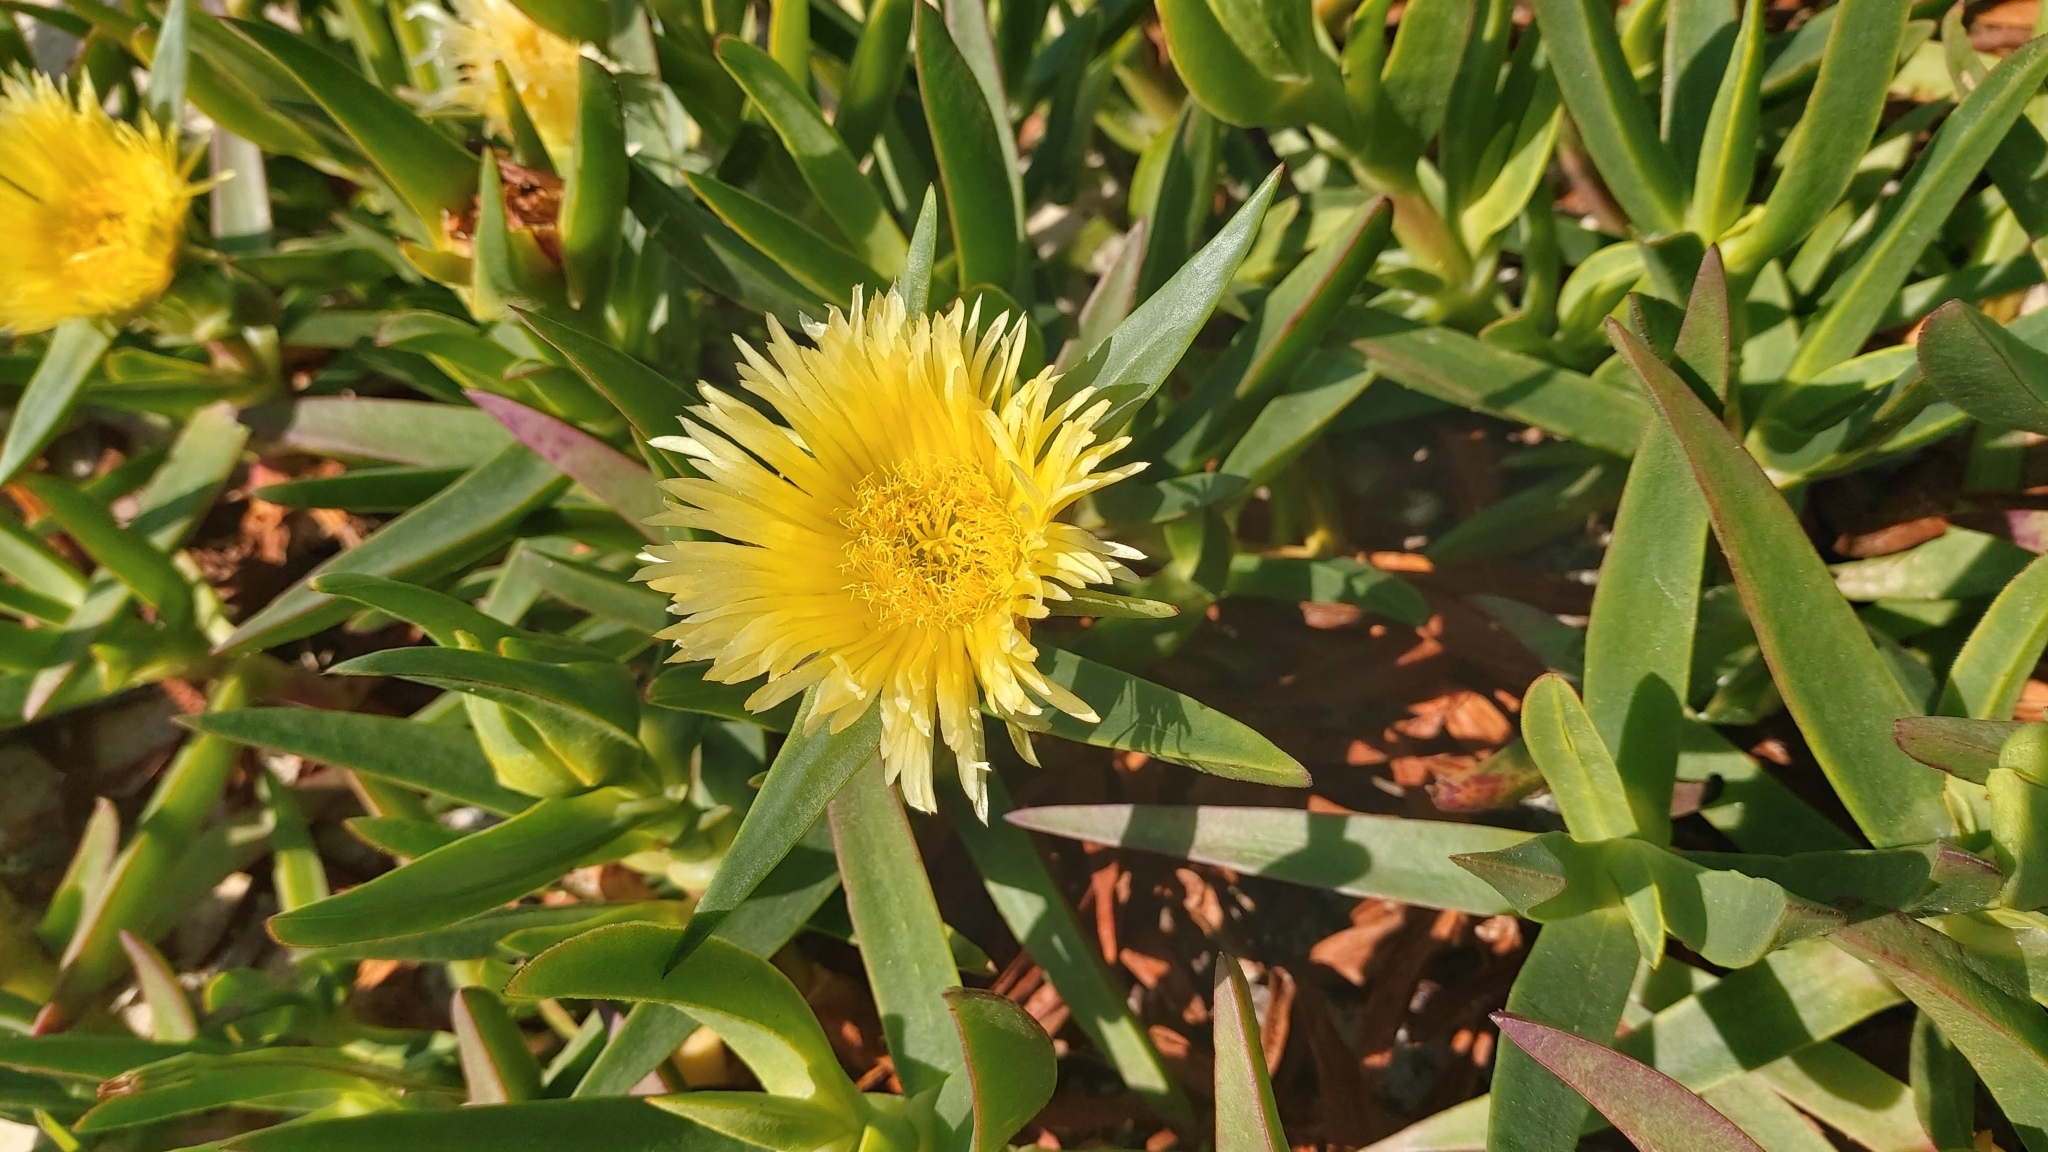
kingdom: Plantae
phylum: Tracheophyta
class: Magnoliopsida
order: Caryophyllales
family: Aizoaceae
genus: Carpobrotus
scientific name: Carpobrotus edulis
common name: Hottentot-fig
